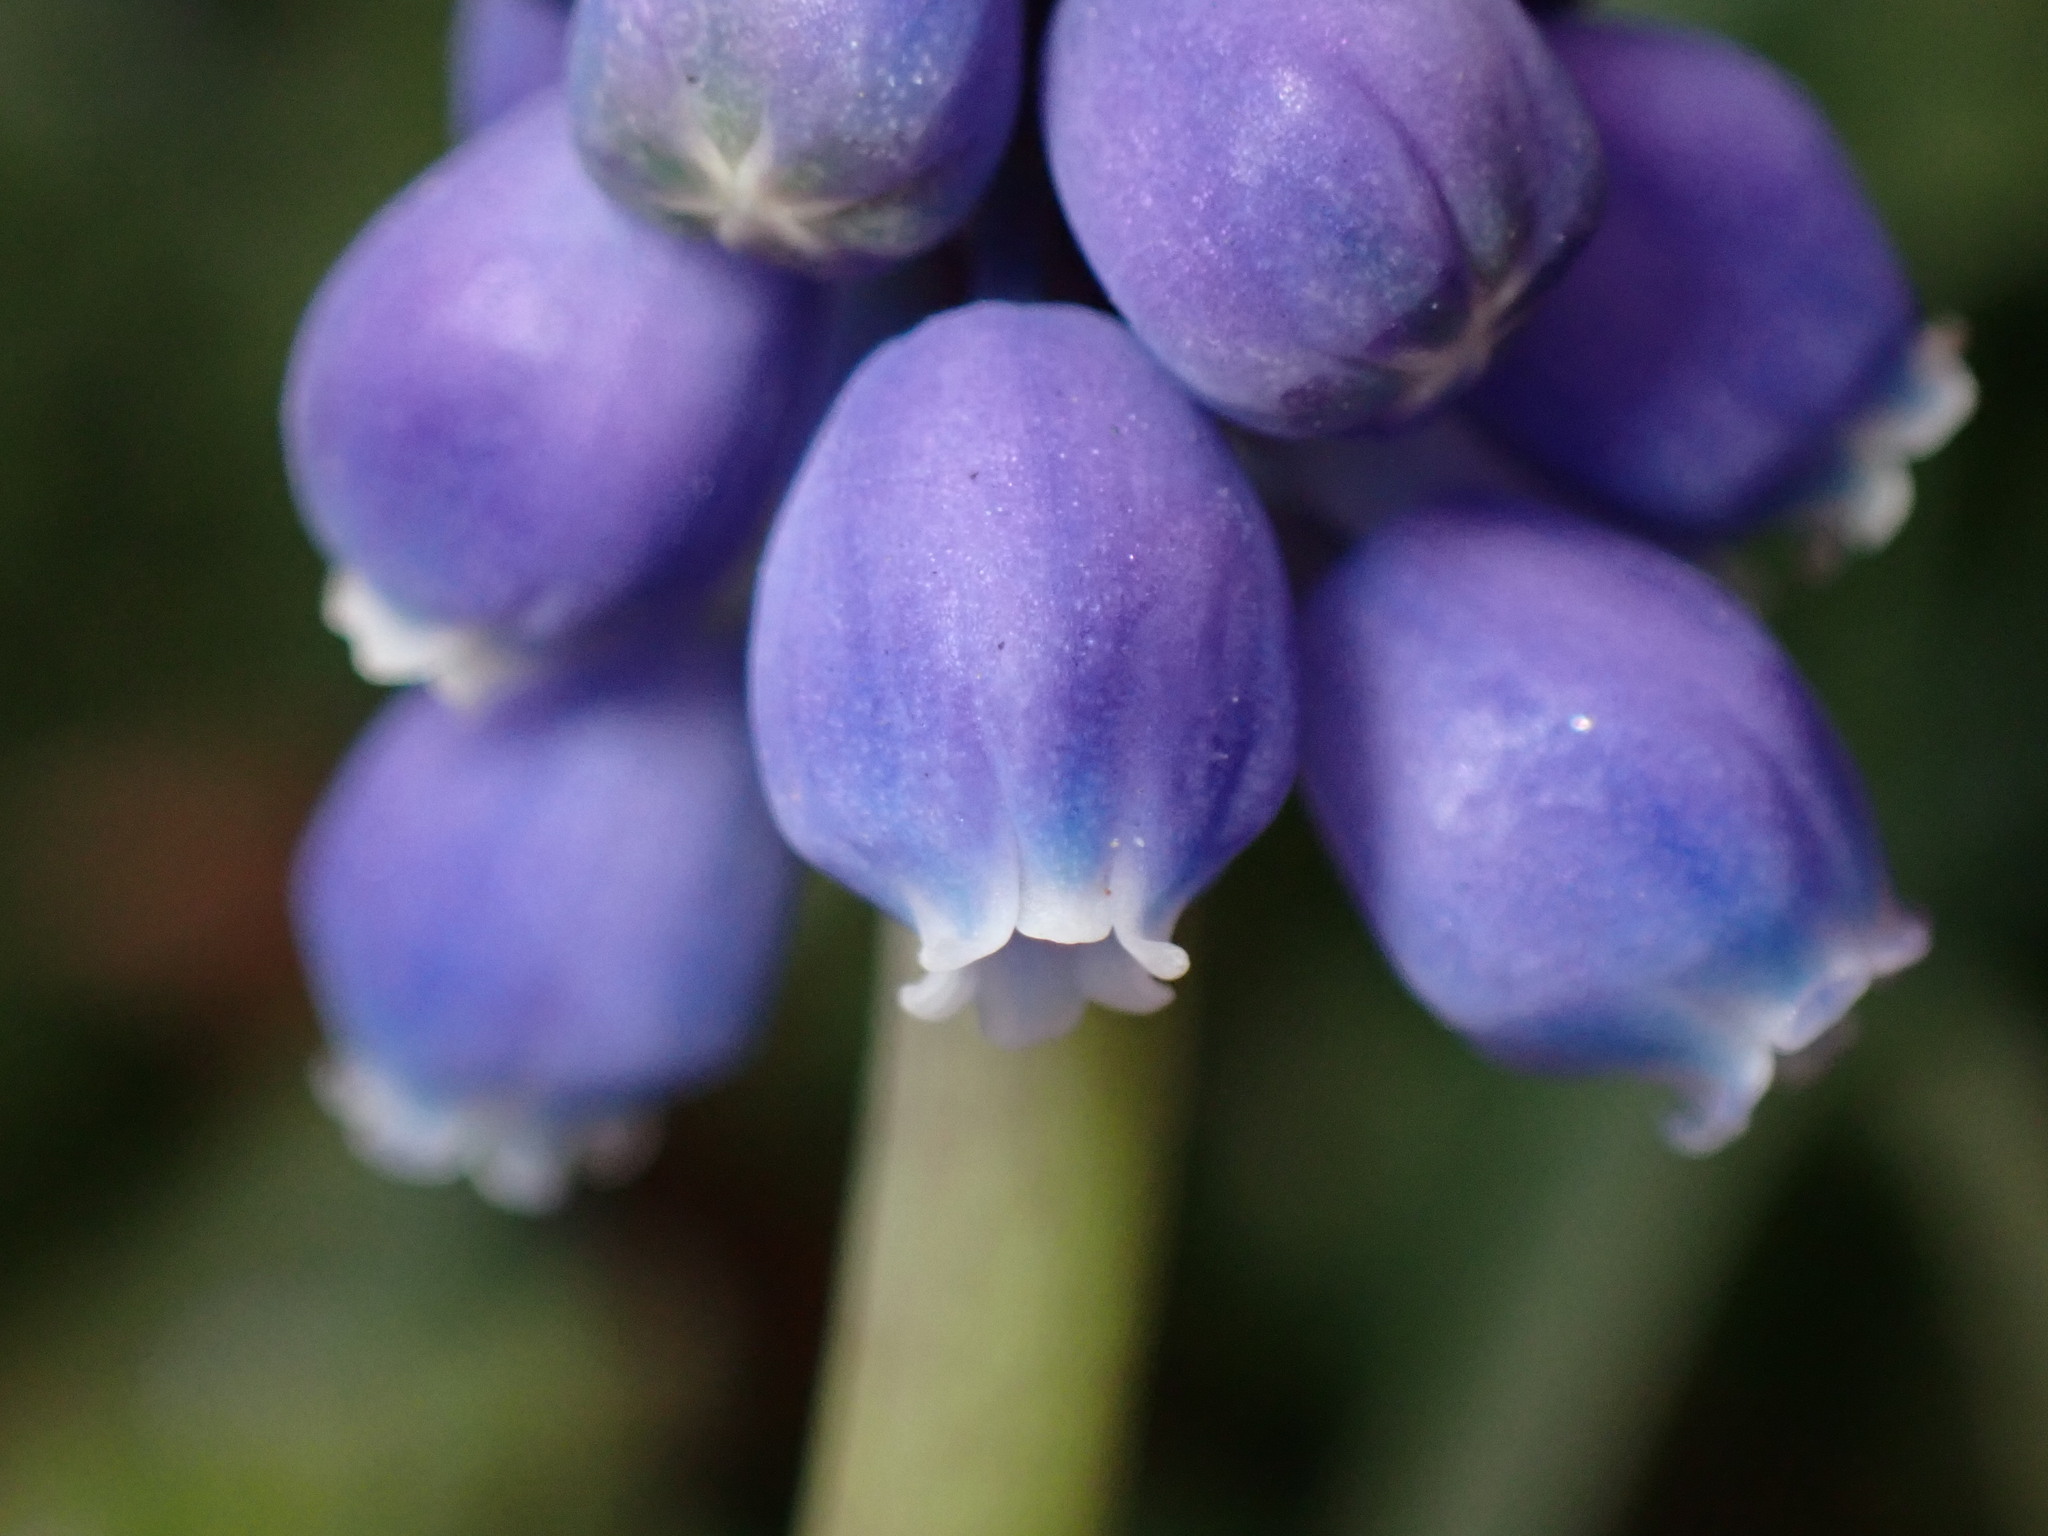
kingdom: Plantae
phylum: Tracheophyta
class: Liliopsida
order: Asparagales
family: Asparagaceae
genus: Muscari
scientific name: Muscari armeniacum
